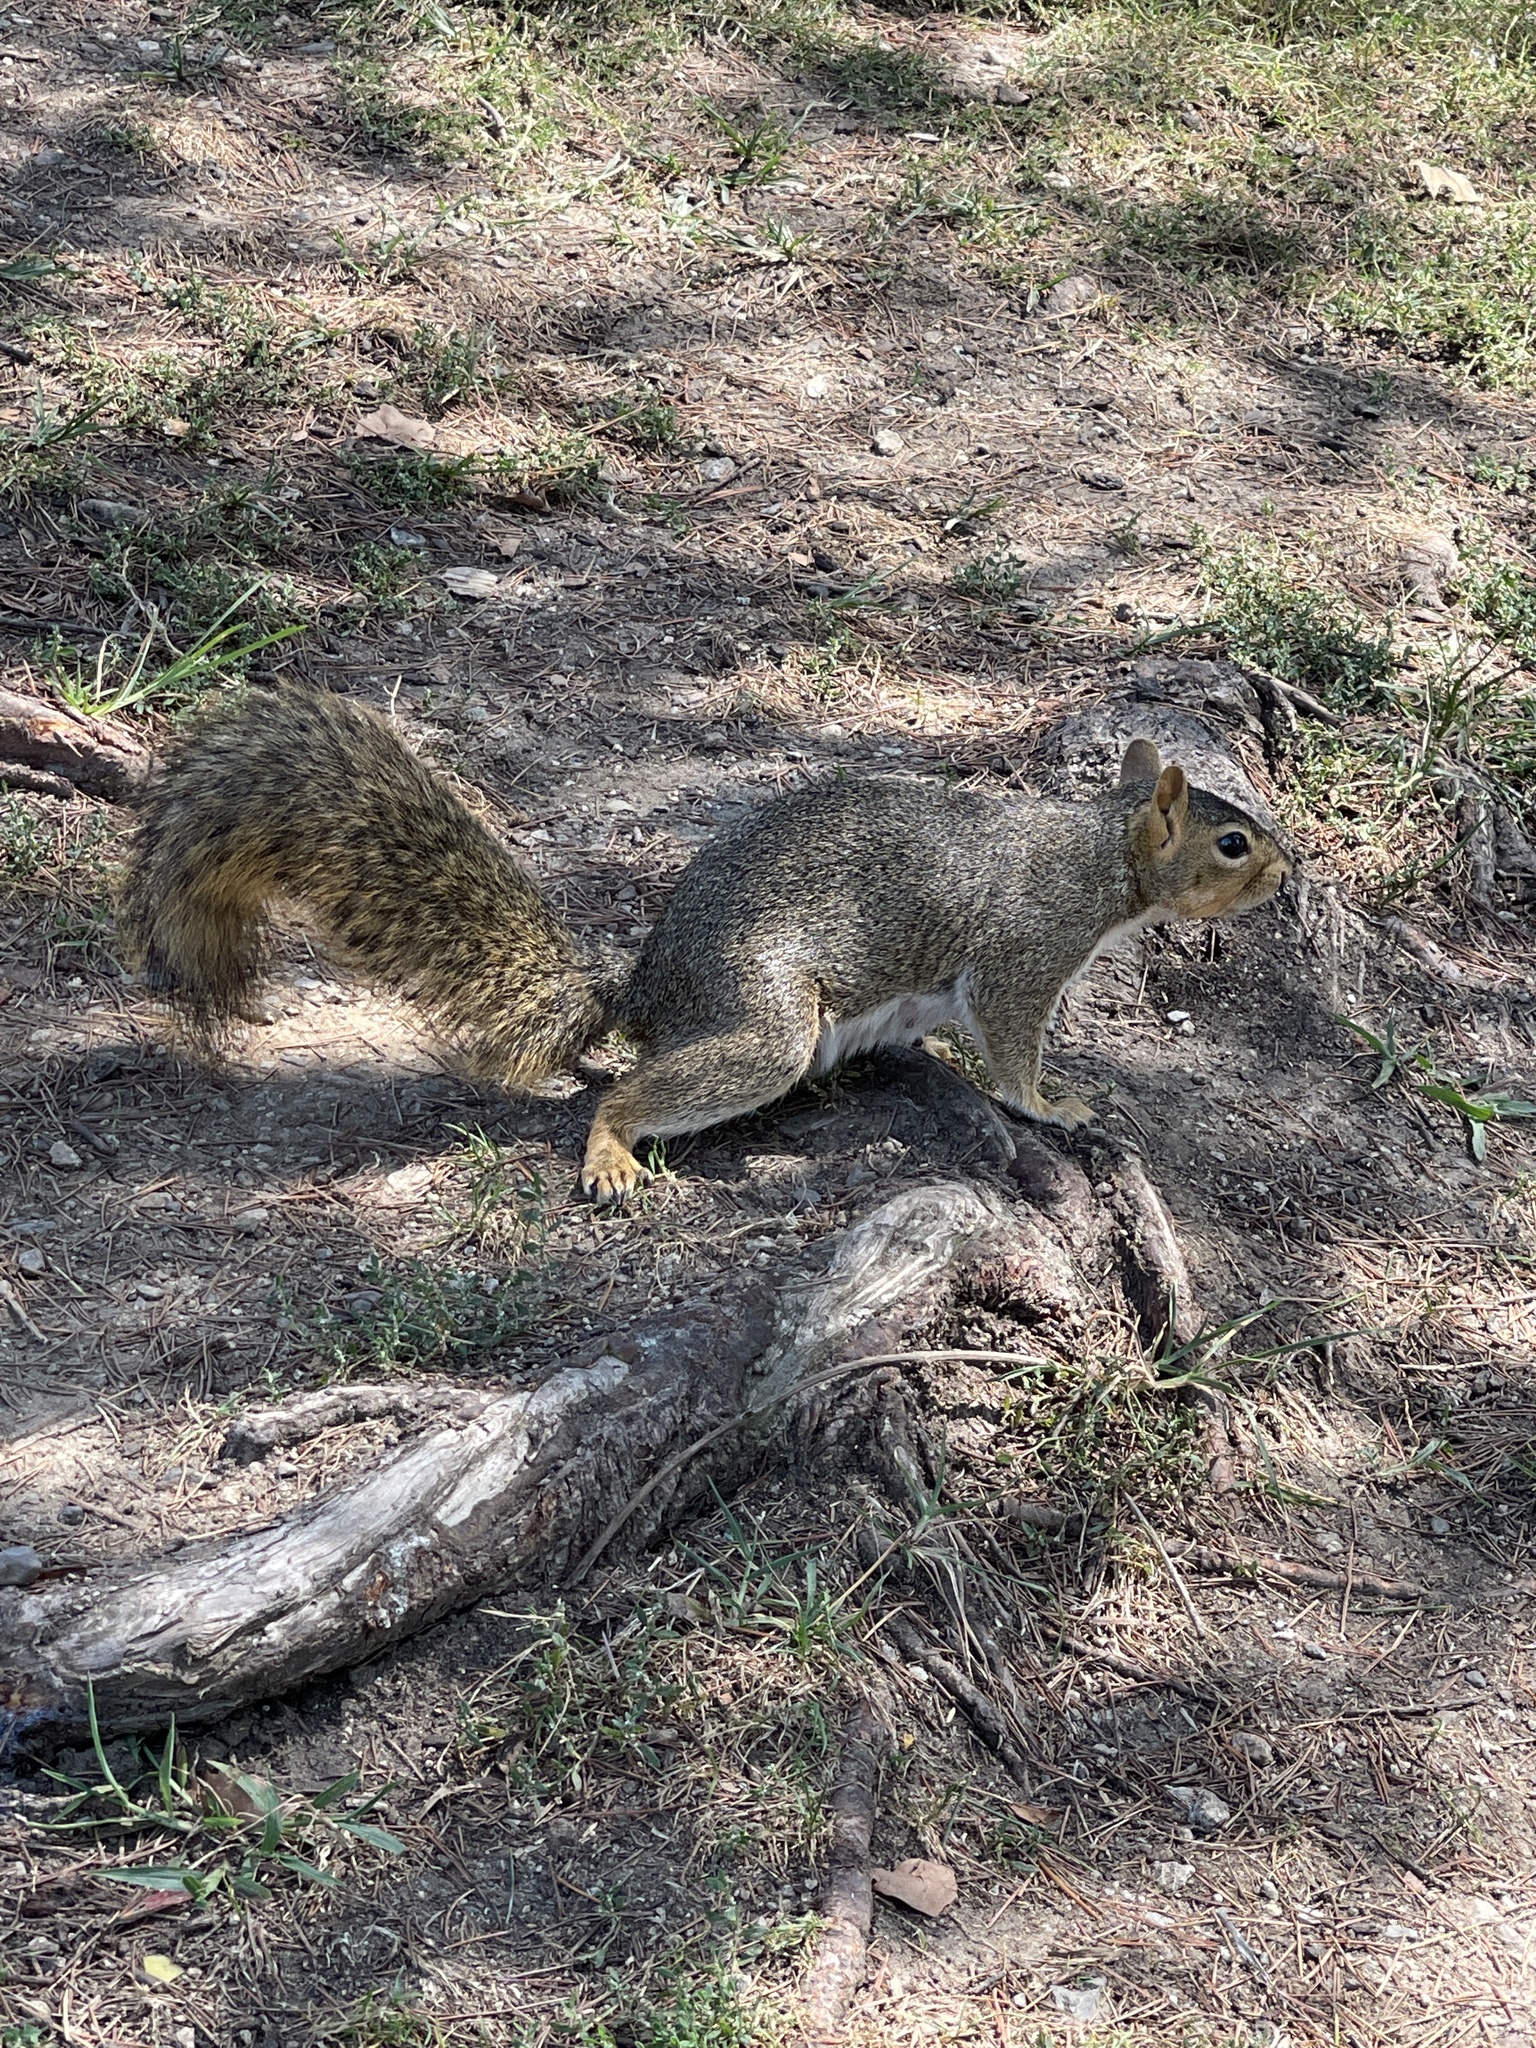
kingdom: Animalia
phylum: Chordata
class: Mammalia
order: Rodentia
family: Sciuridae
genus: Sciurus
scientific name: Sciurus niger
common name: Fox squirrel
